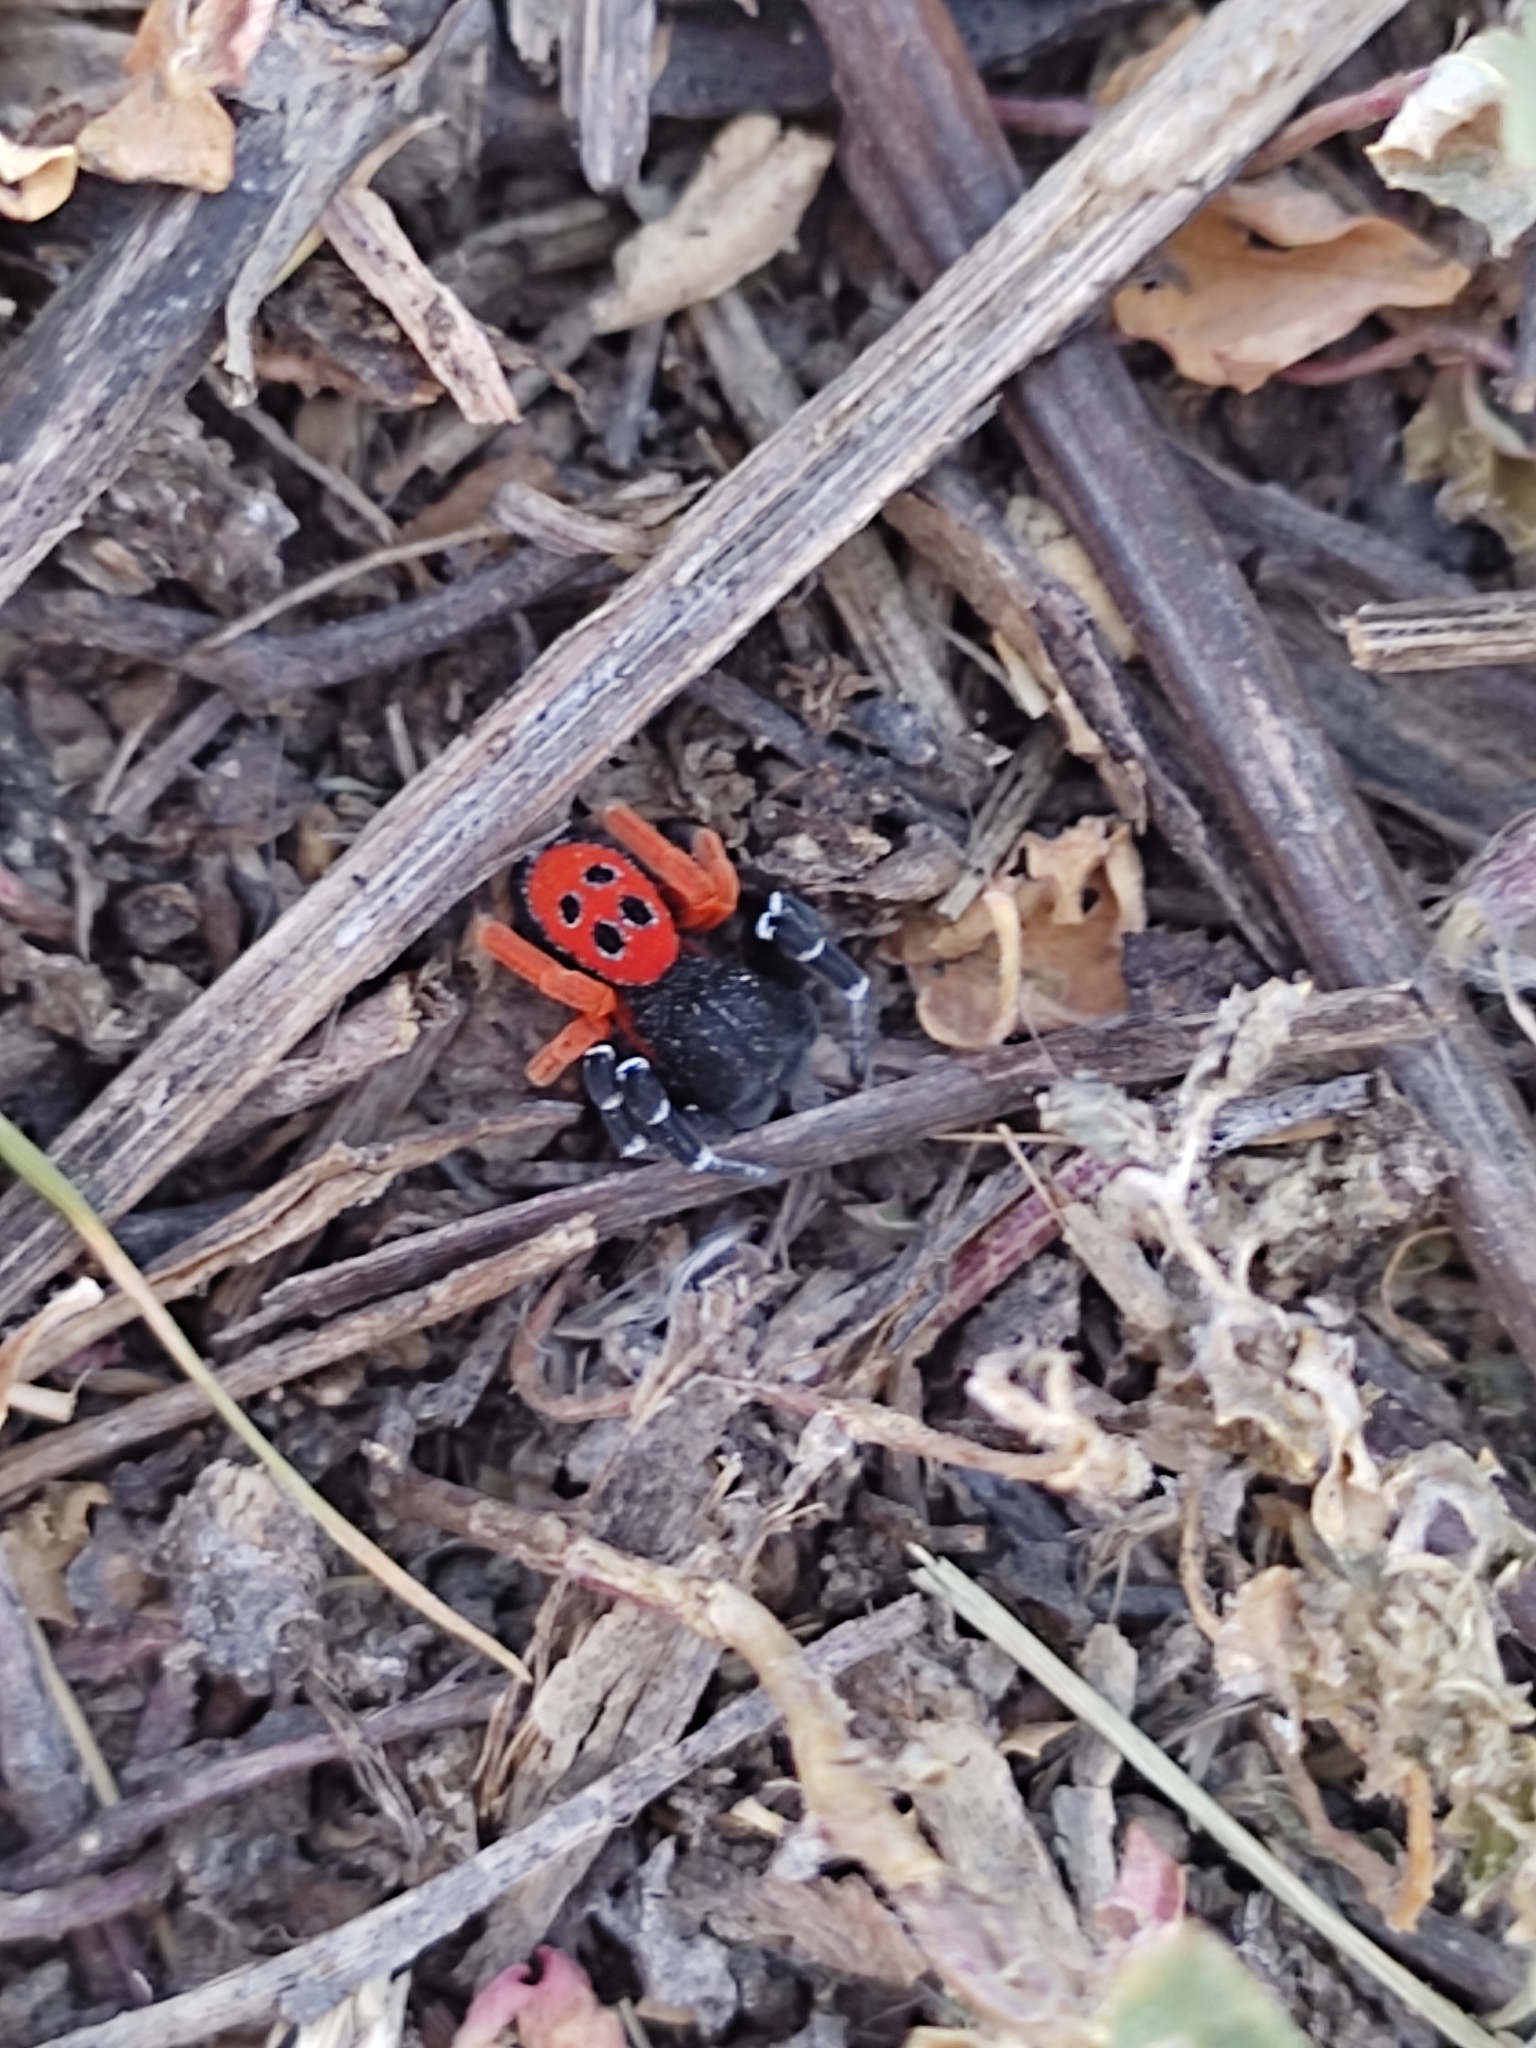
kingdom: Animalia
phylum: Arthropoda
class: Arachnida
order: Araneae
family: Eresidae
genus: Eresus
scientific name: Eresus kollari
